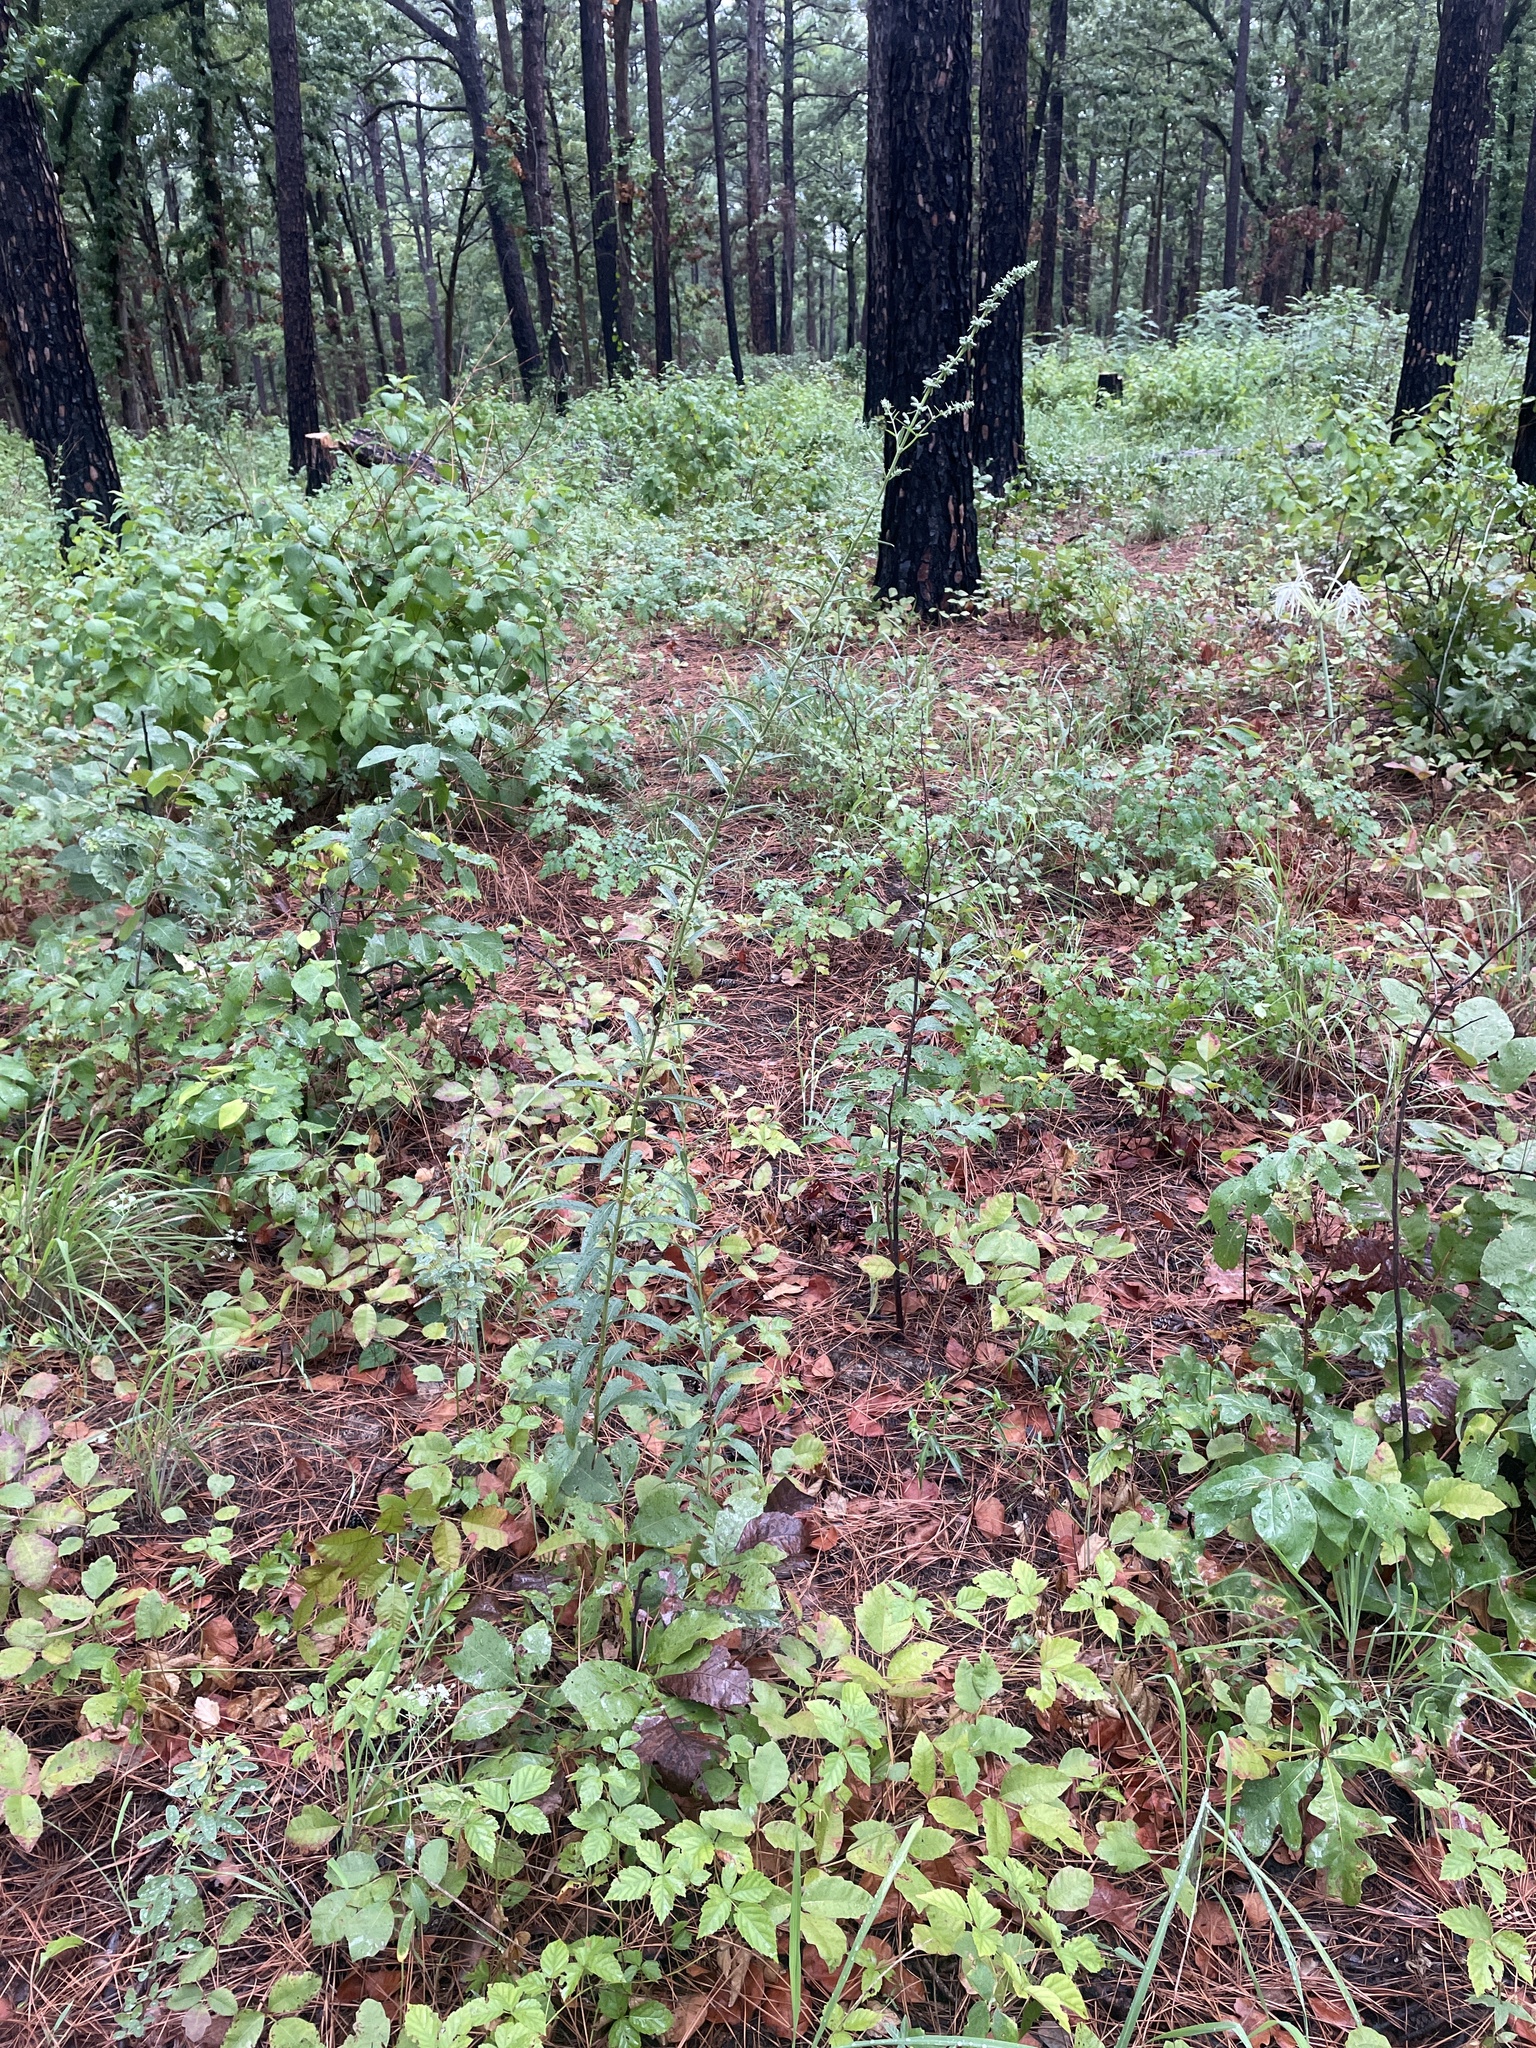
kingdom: Plantae
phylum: Tracheophyta
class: Magnoliopsida
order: Lamiales
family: Lamiaceae
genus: Salvia
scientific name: Salvia azurea
